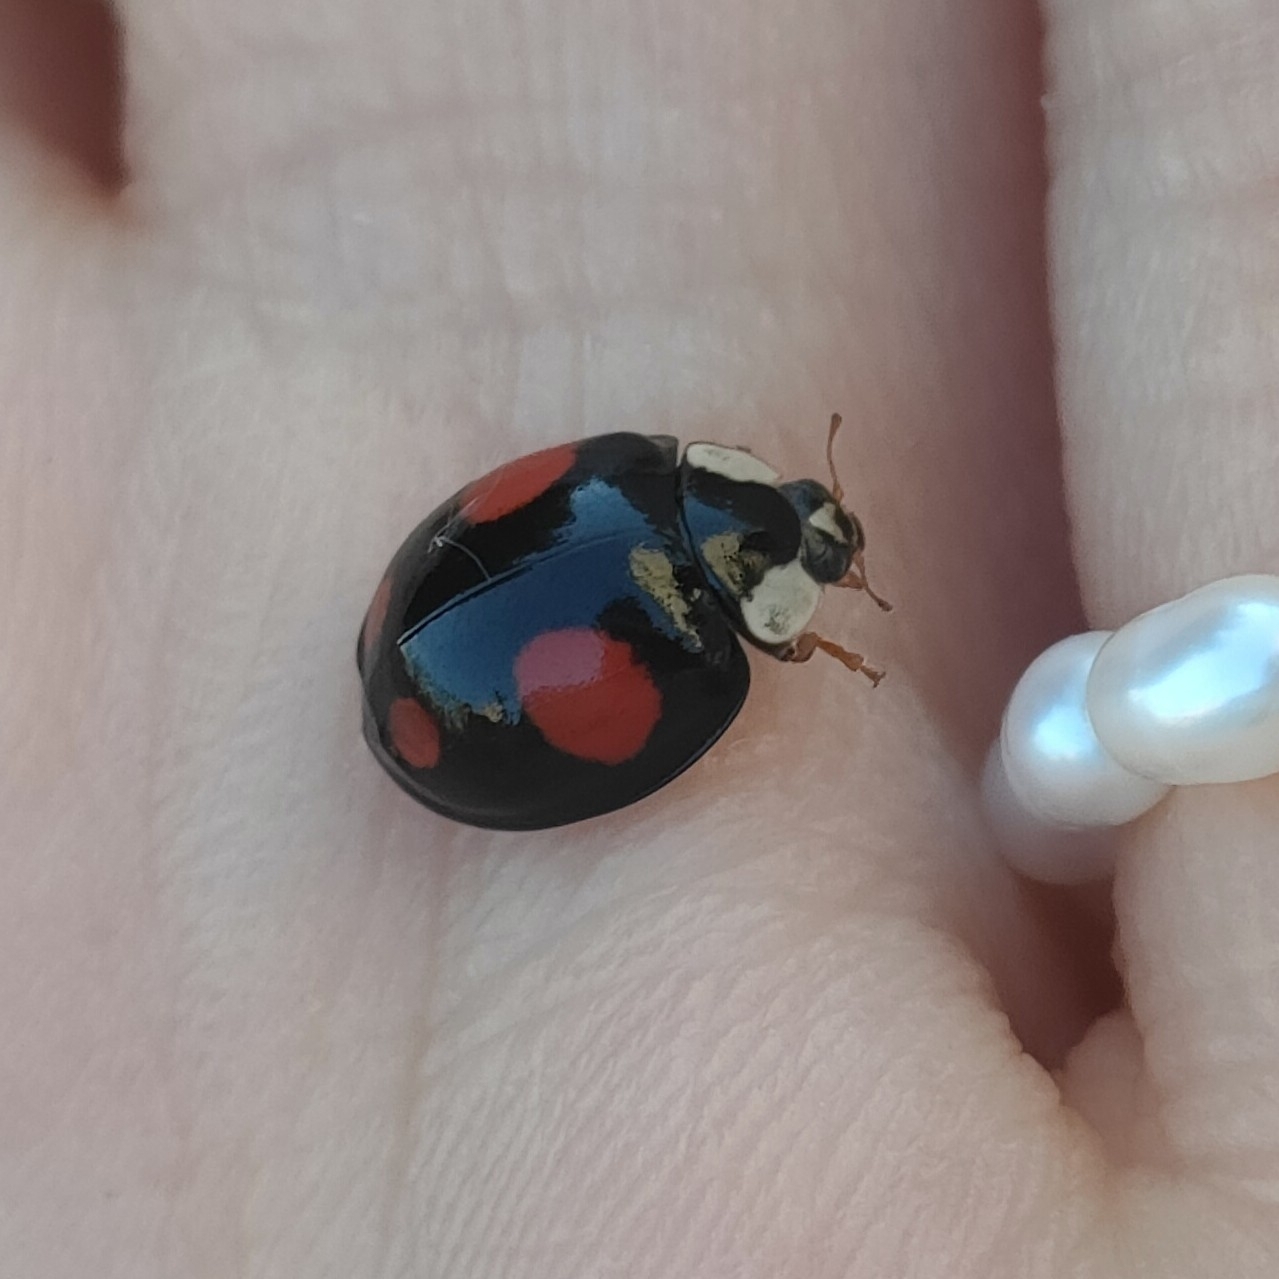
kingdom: Animalia
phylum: Arthropoda
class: Insecta
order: Coleoptera
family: Coccinellidae
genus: Harmonia
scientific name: Harmonia axyridis
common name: Harlequin ladybird
